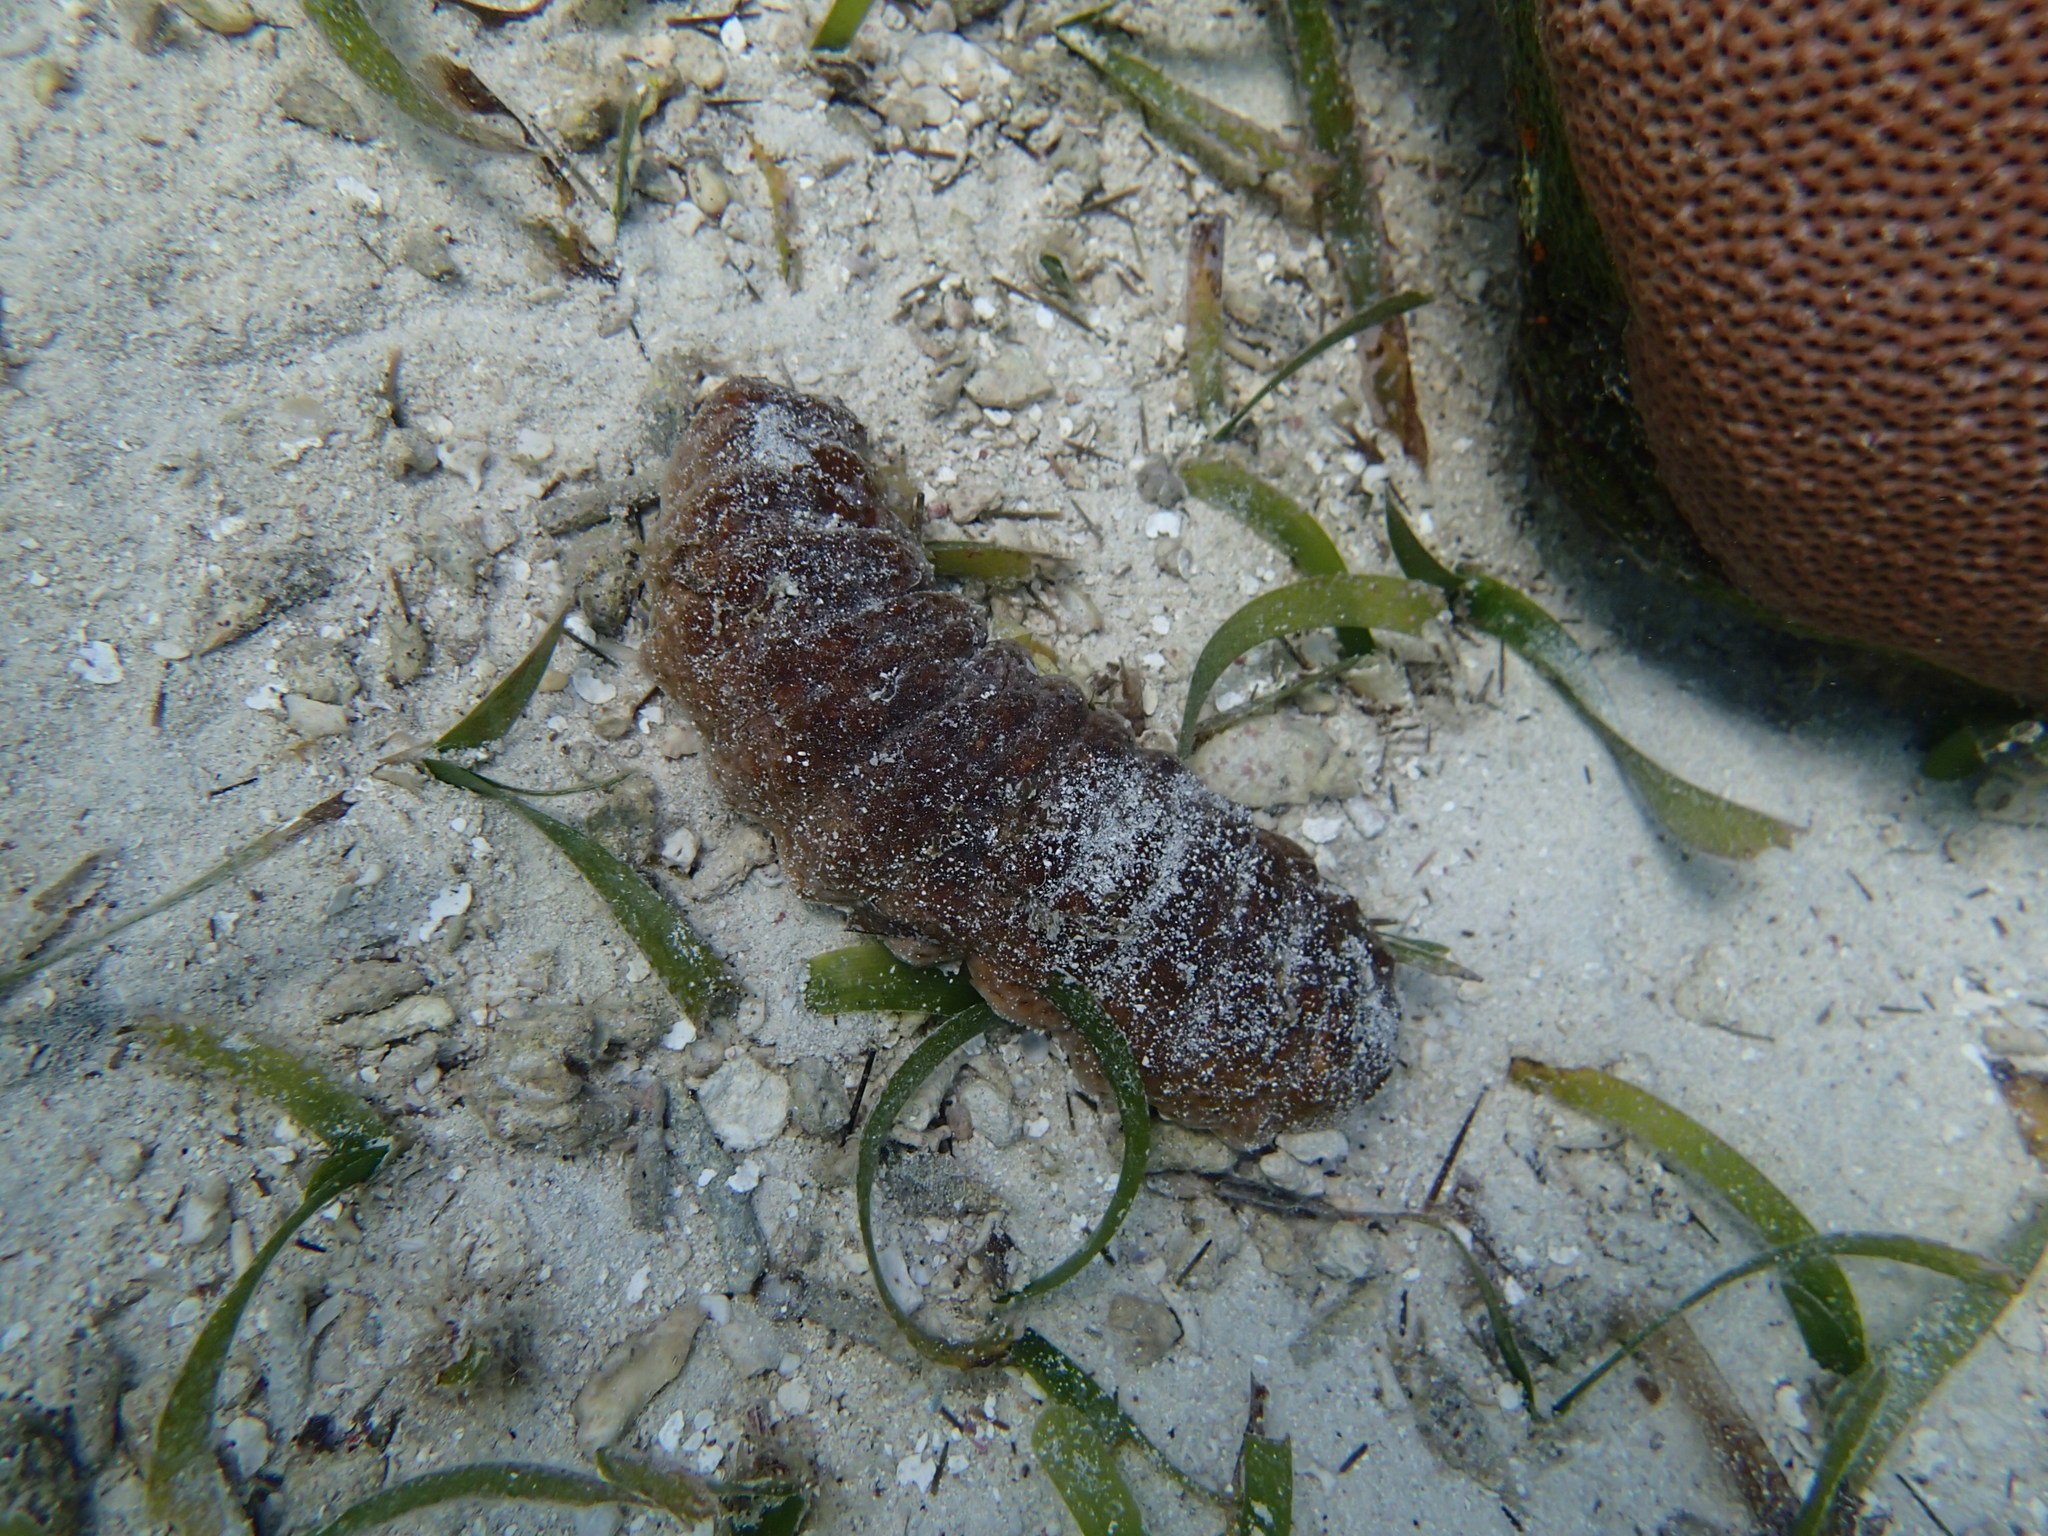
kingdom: Animalia
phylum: Echinodermata
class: Holothuroidea
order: Holothuriida
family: Holothuriidae
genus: Holothuria
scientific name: Holothuria mexicana
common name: Donkey dung sea cucumber
